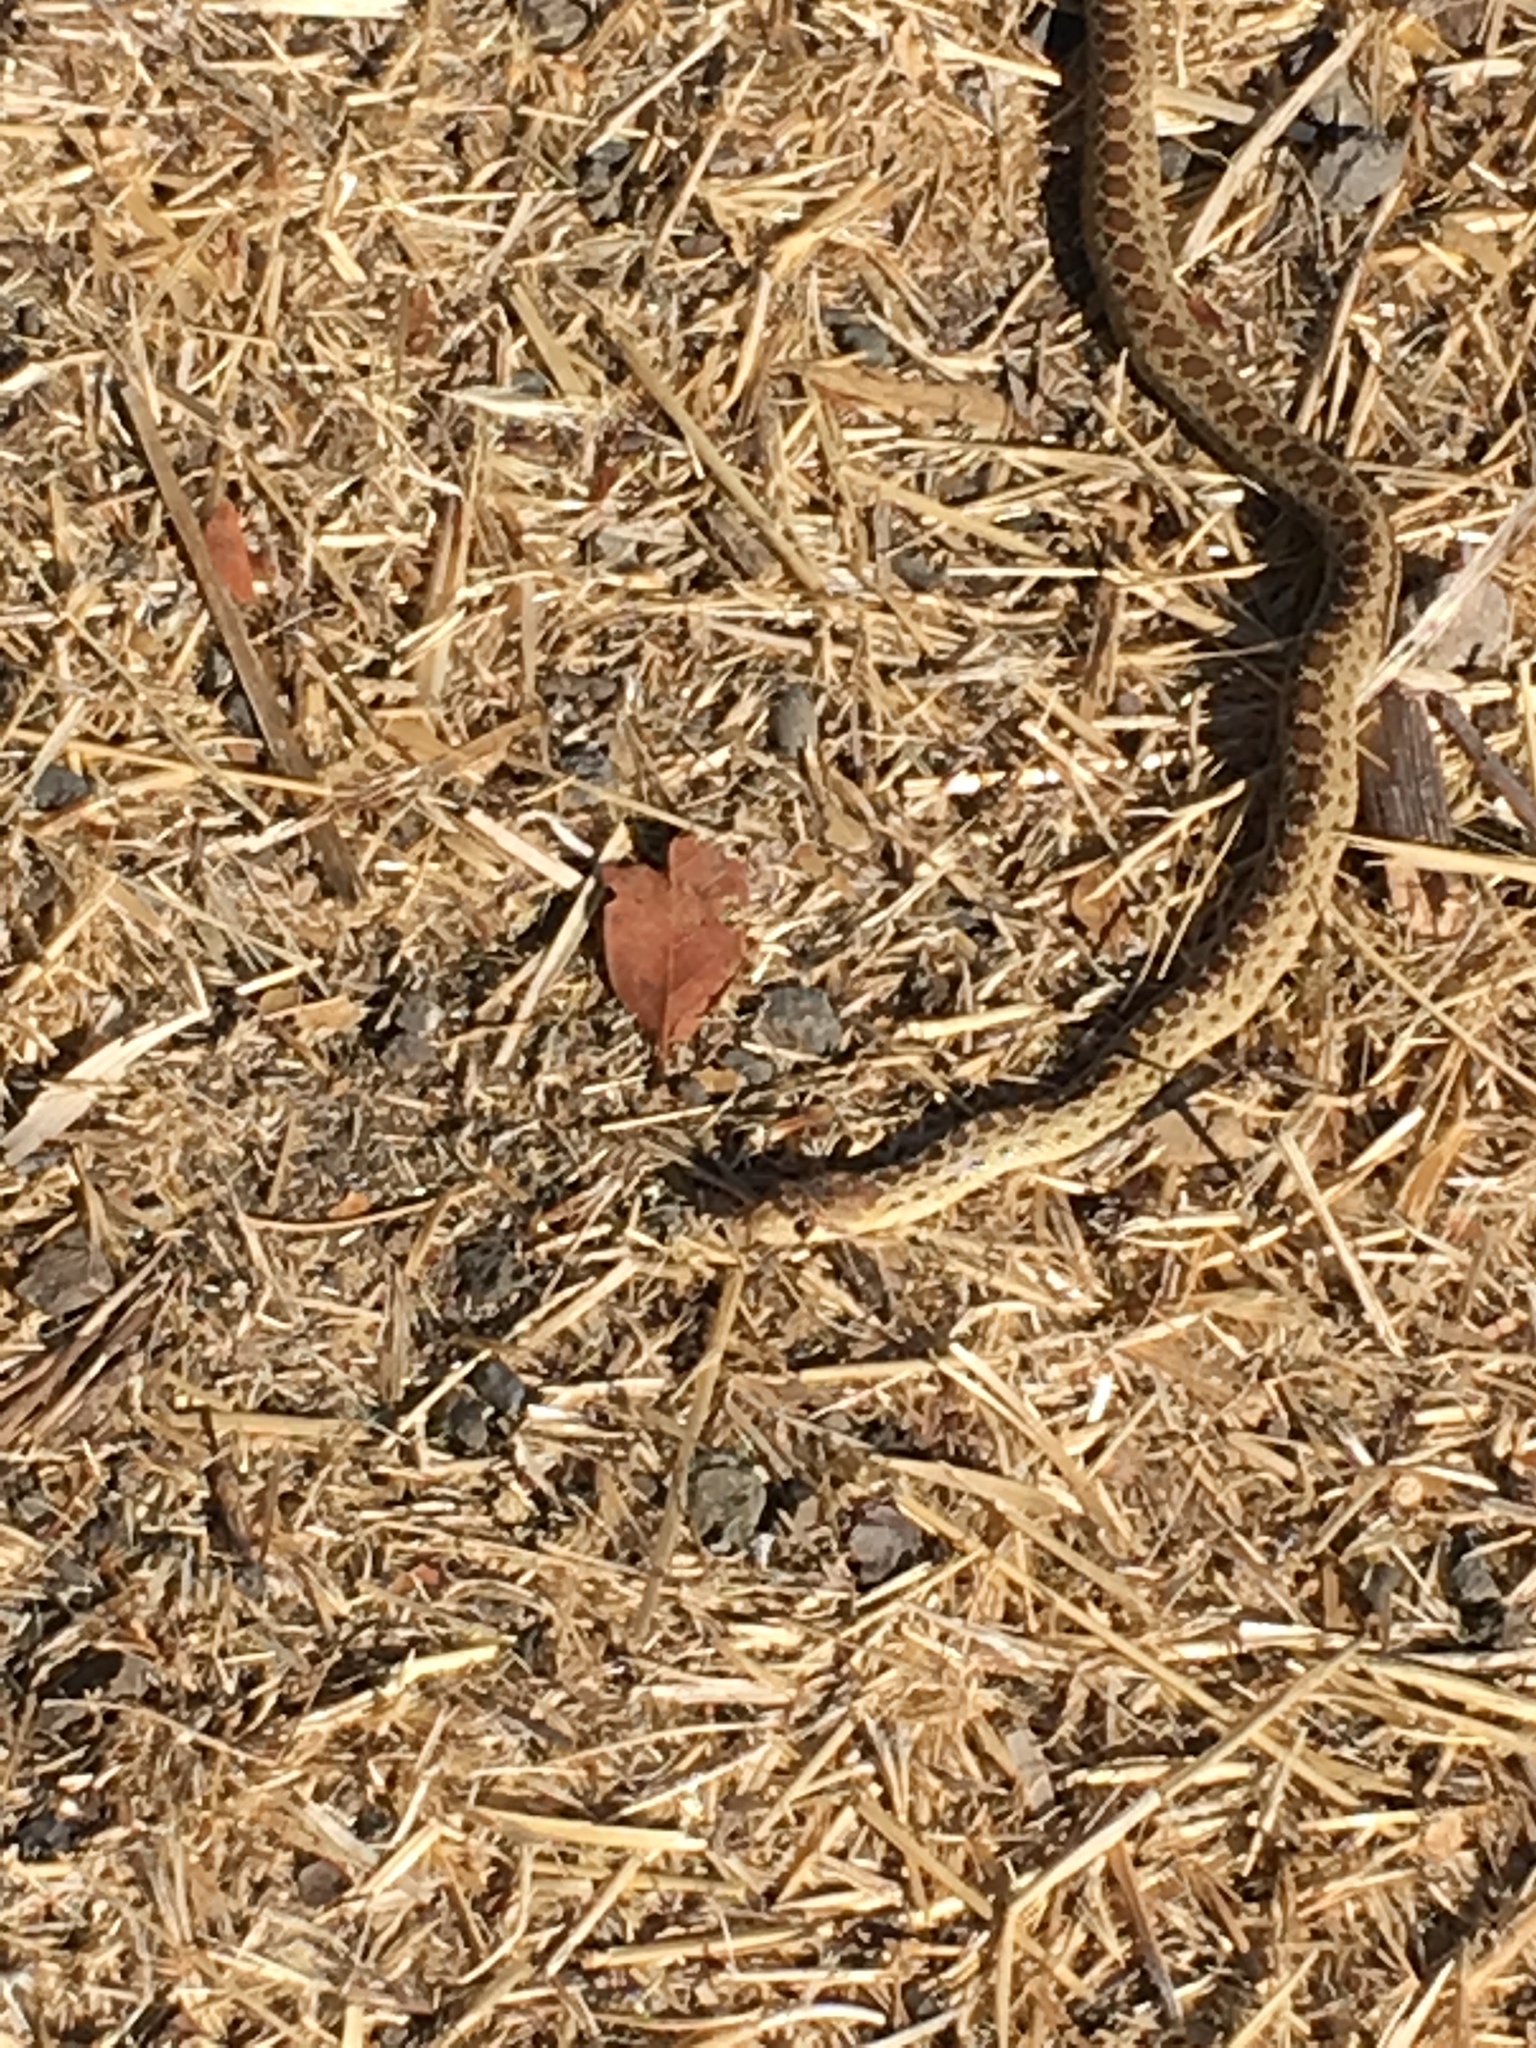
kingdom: Animalia
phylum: Chordata
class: Squamata
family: Colubridae
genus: Pituophis
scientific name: Pituophis catenifer
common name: Gopher snake
